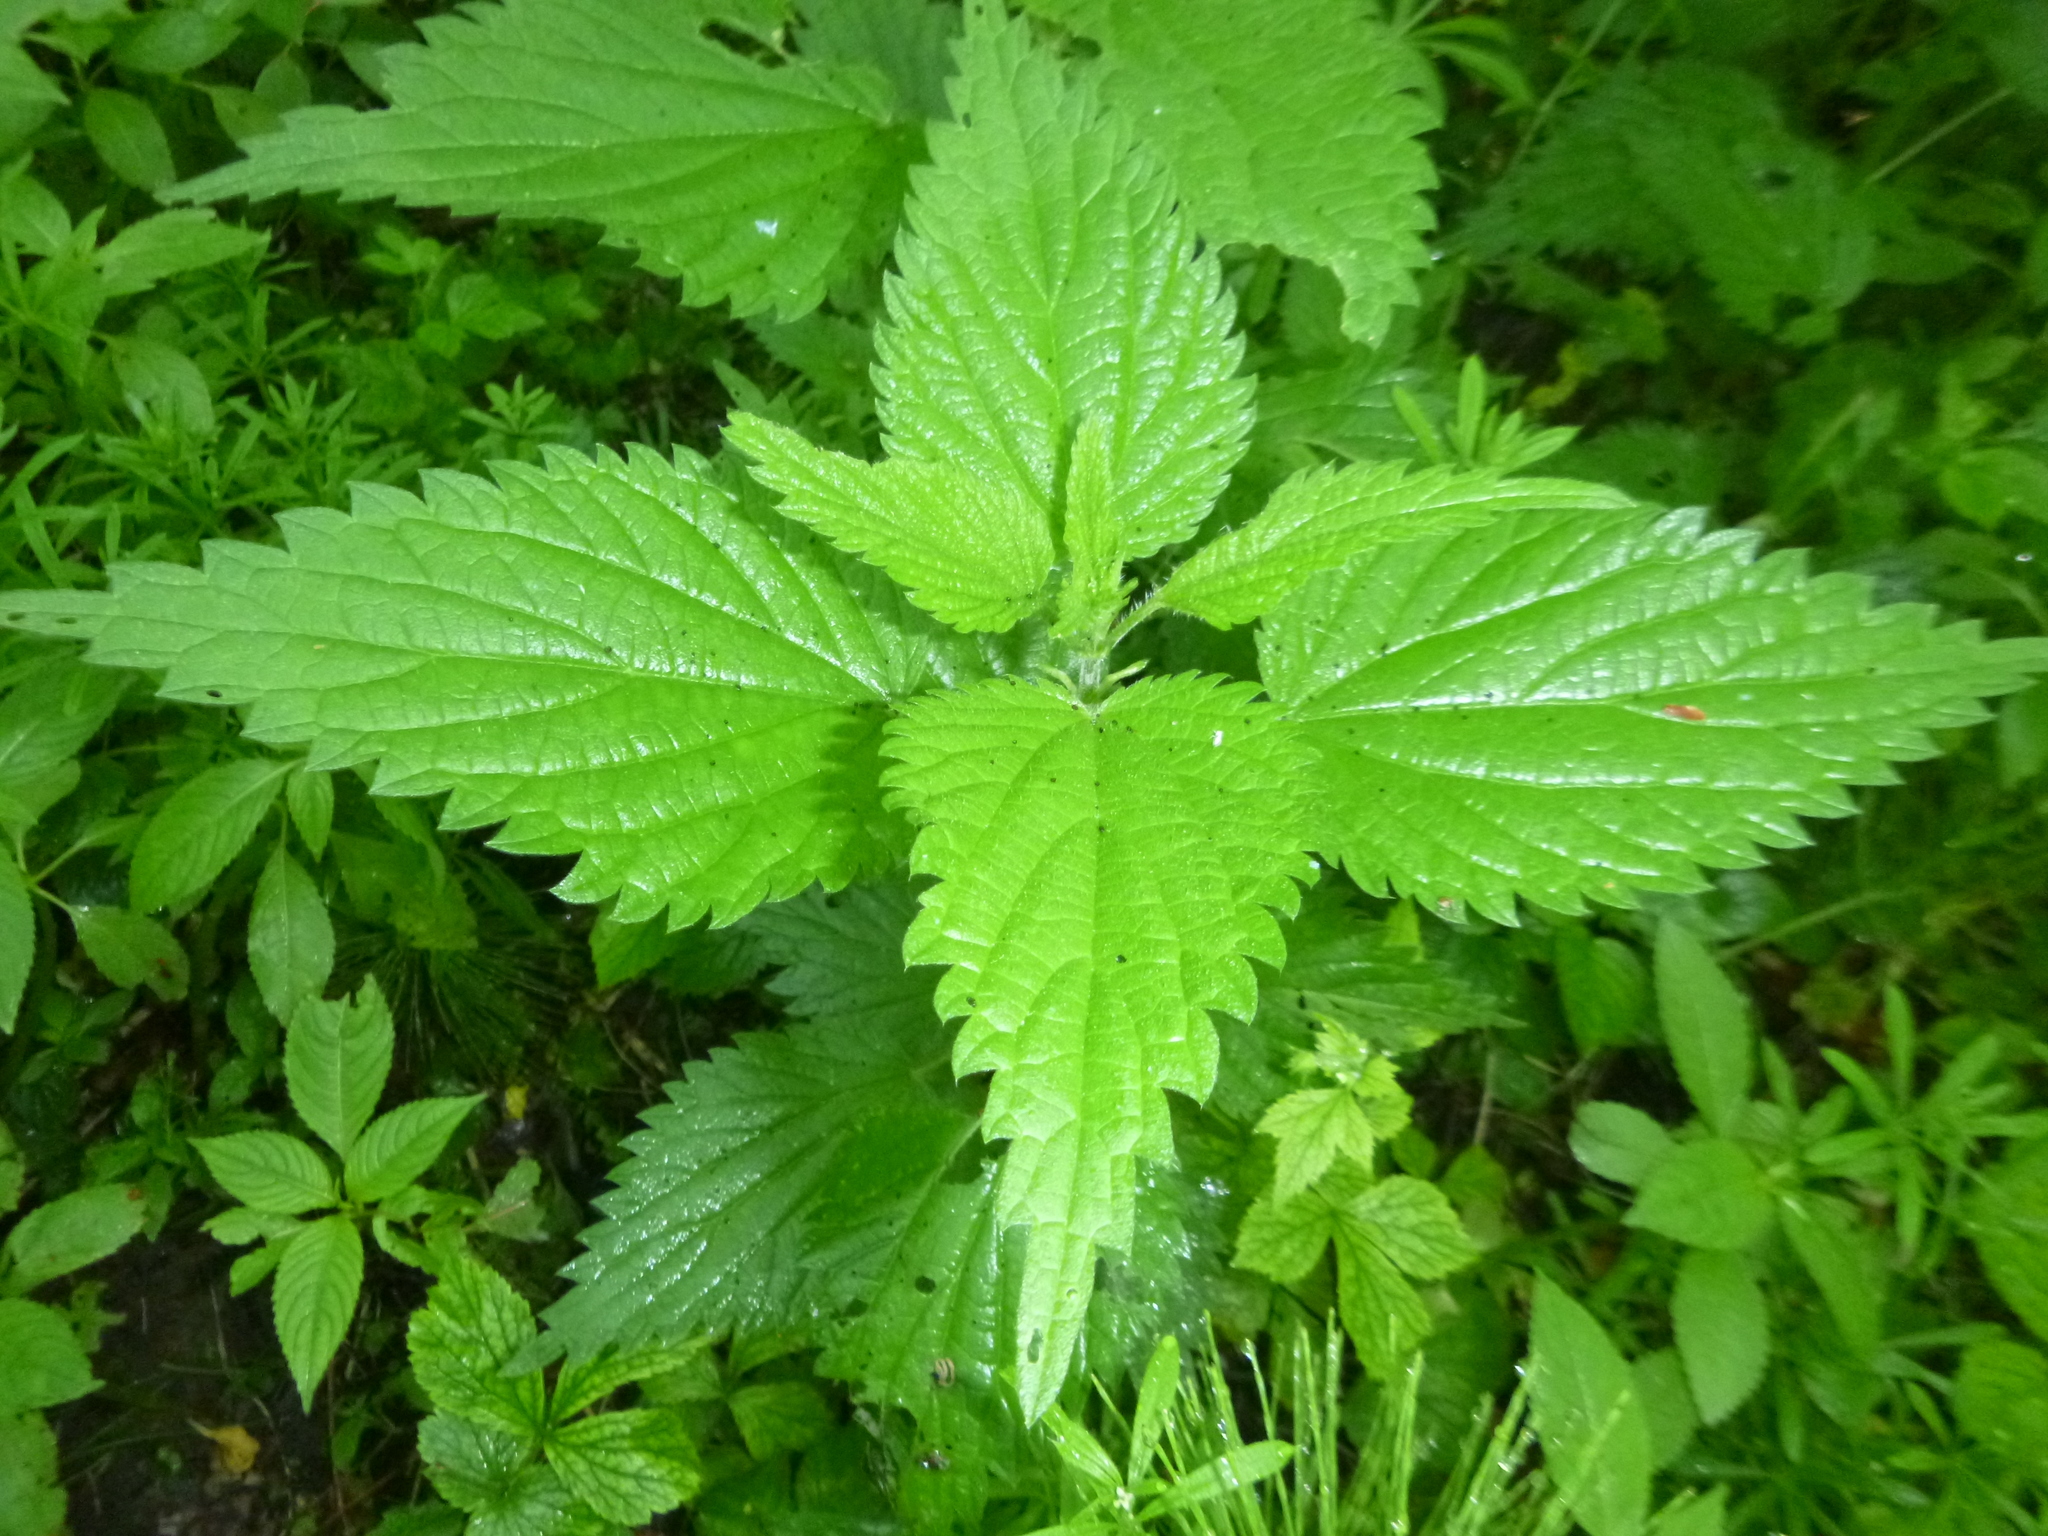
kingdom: Plantae
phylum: Tracheophyta
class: Magnoliopsida
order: Rosales
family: Urticaceae
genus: Urtica
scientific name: Urtica dioica
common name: Common nettle
